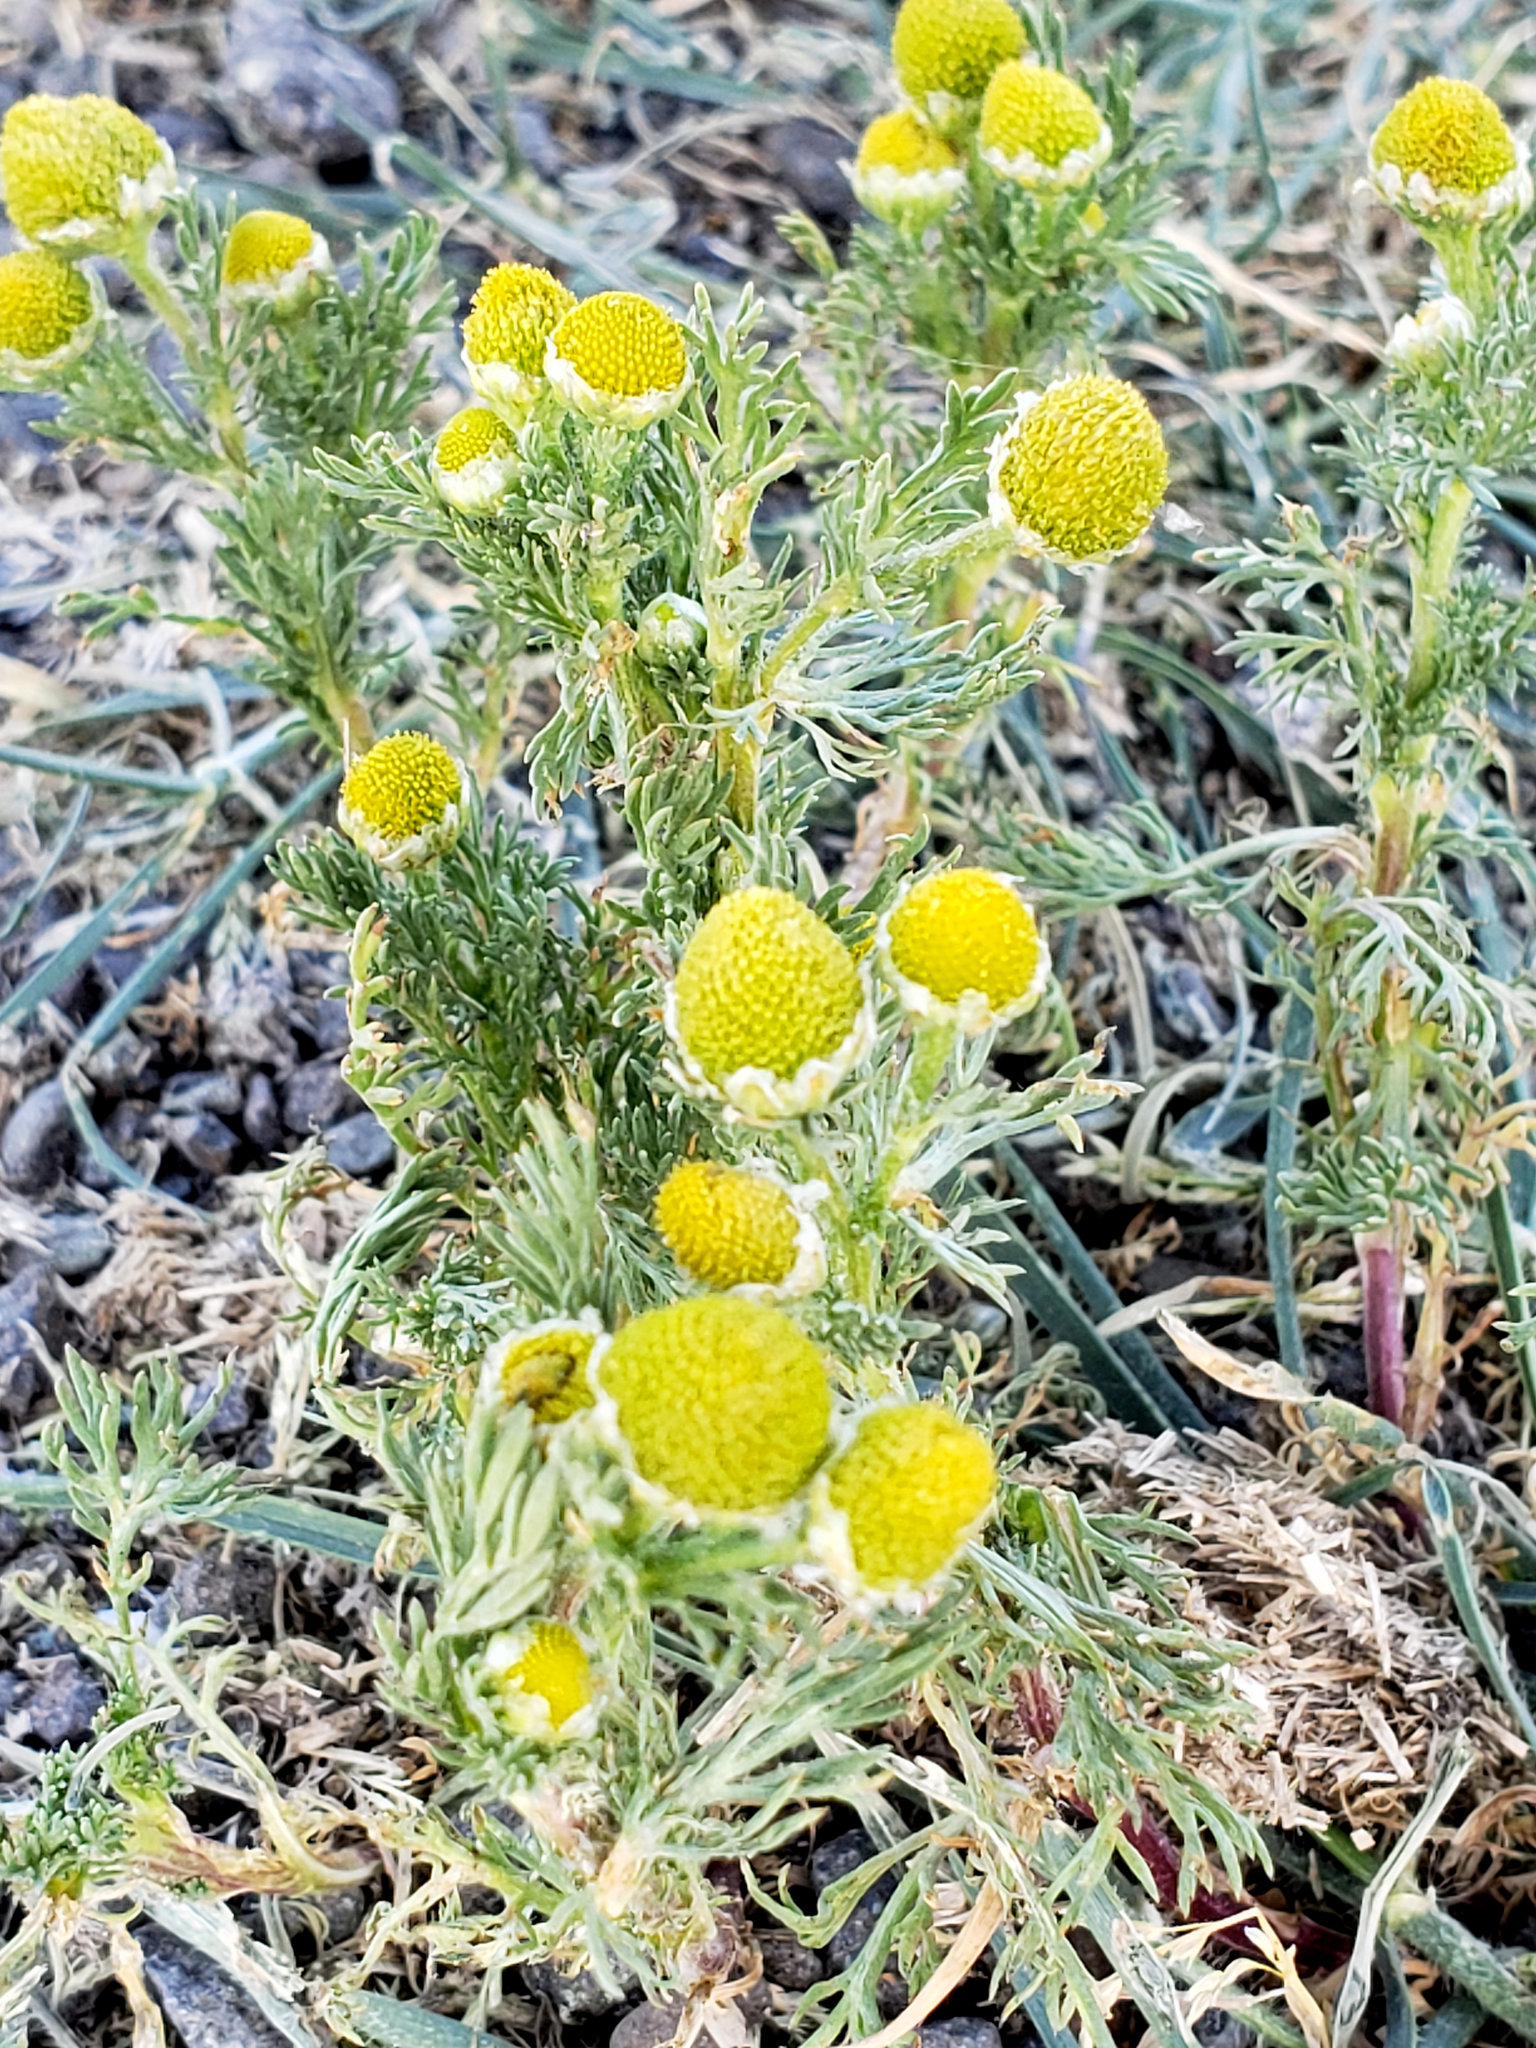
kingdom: Plantae
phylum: Tracheophyta
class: Magnoliopsida
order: Asterales
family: Asteraceae
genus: Matricaria
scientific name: Matricaria discoidea
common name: Disc mayweed
